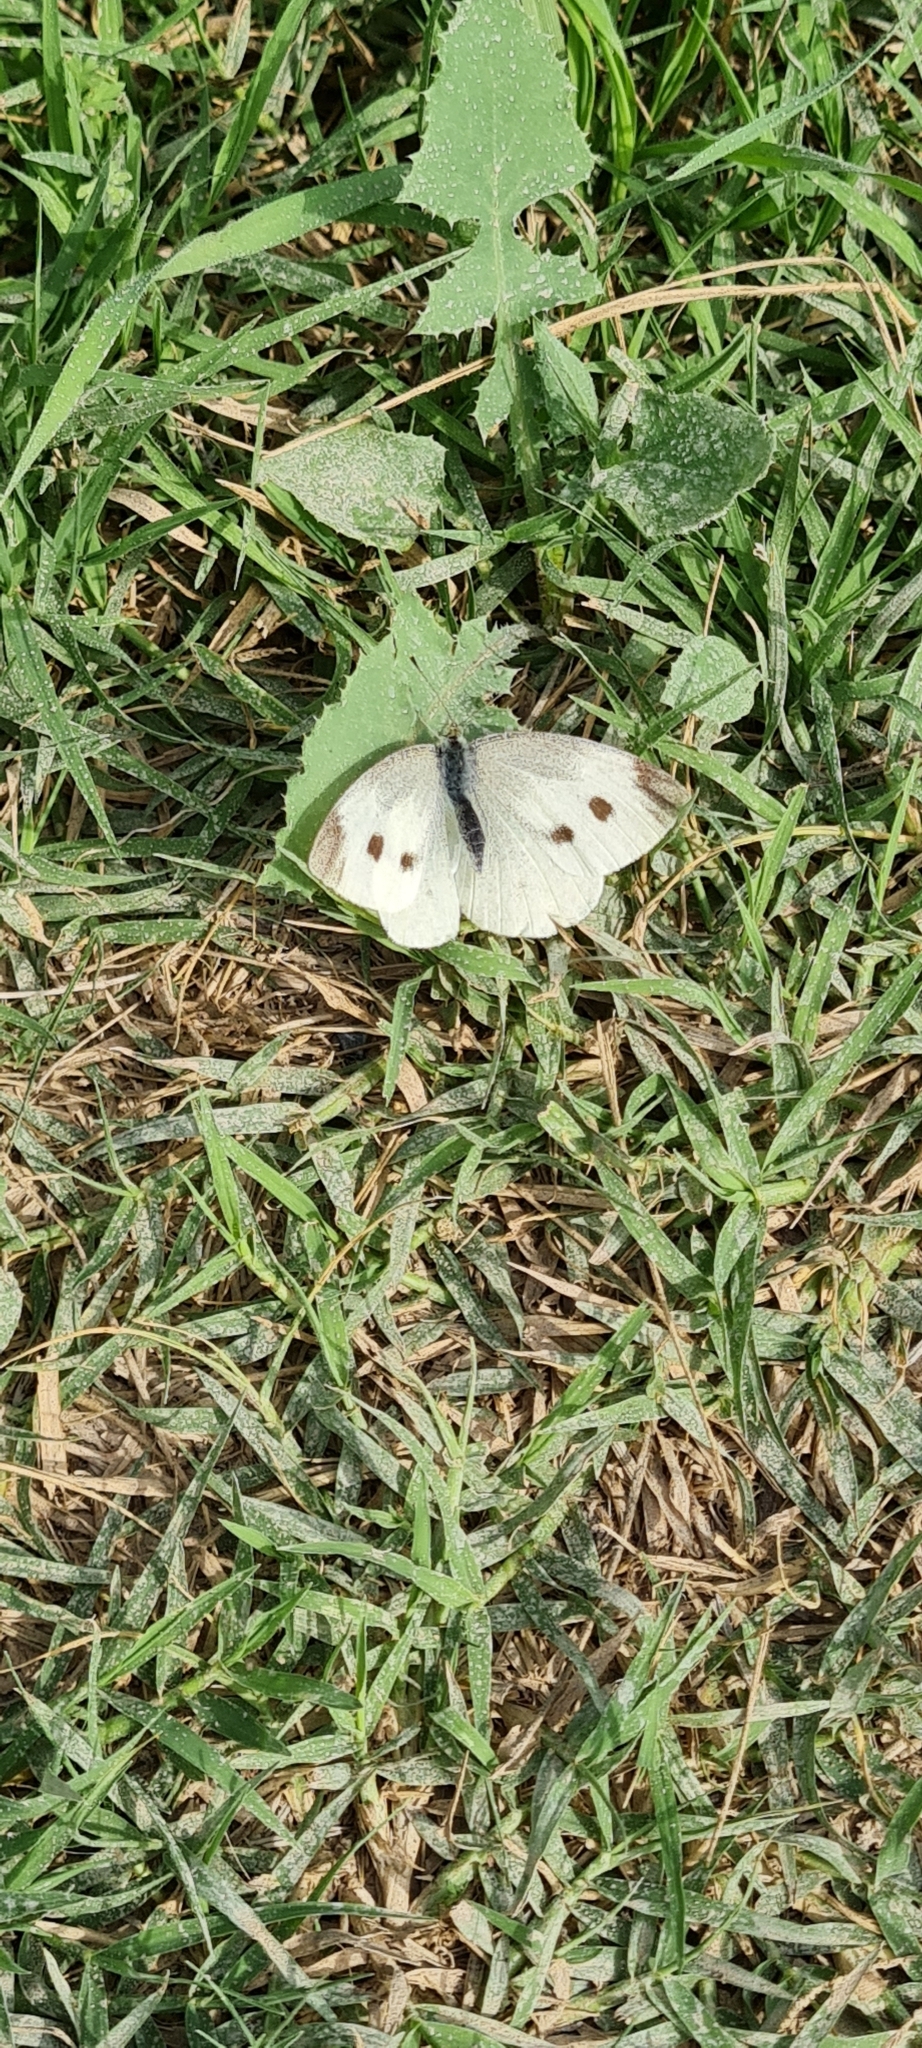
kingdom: Animalia
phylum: Arthropoda
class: Insecta
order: Lepidoptera
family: Pieridae
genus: Pieris
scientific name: Pieris rapae
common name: Small white
